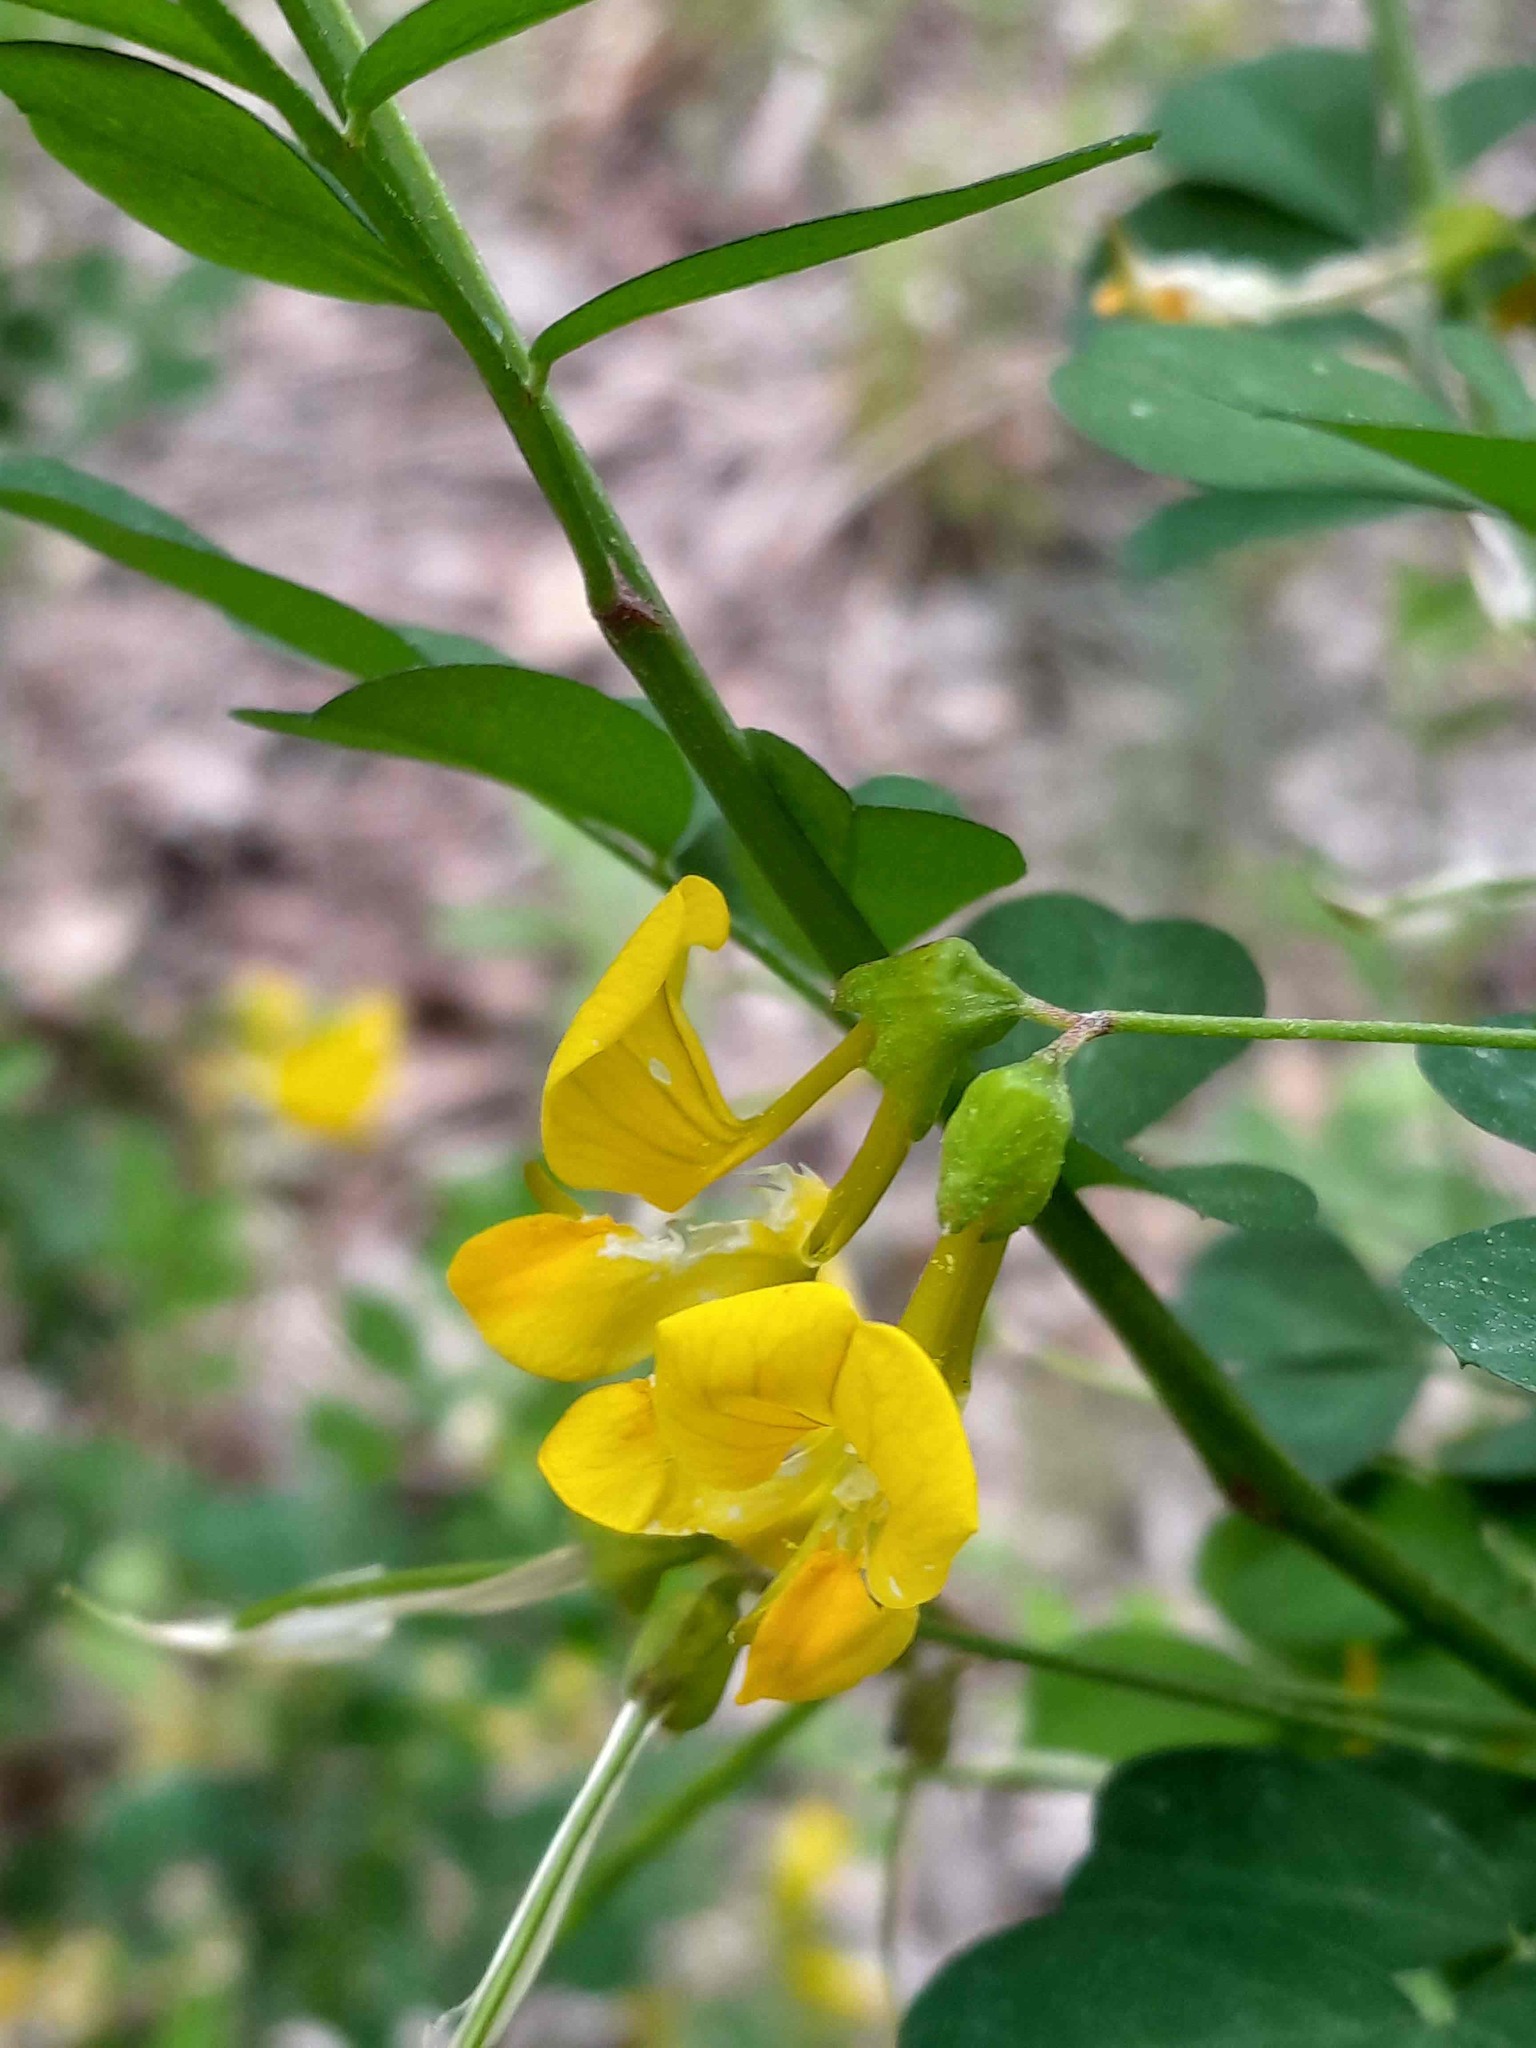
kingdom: Plantae
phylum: Tracheophyta
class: Magnoliopsida
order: Fabales
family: Fabaceae
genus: Hippocrepis
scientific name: Hippocrepis emerus
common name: Scorpion senna
